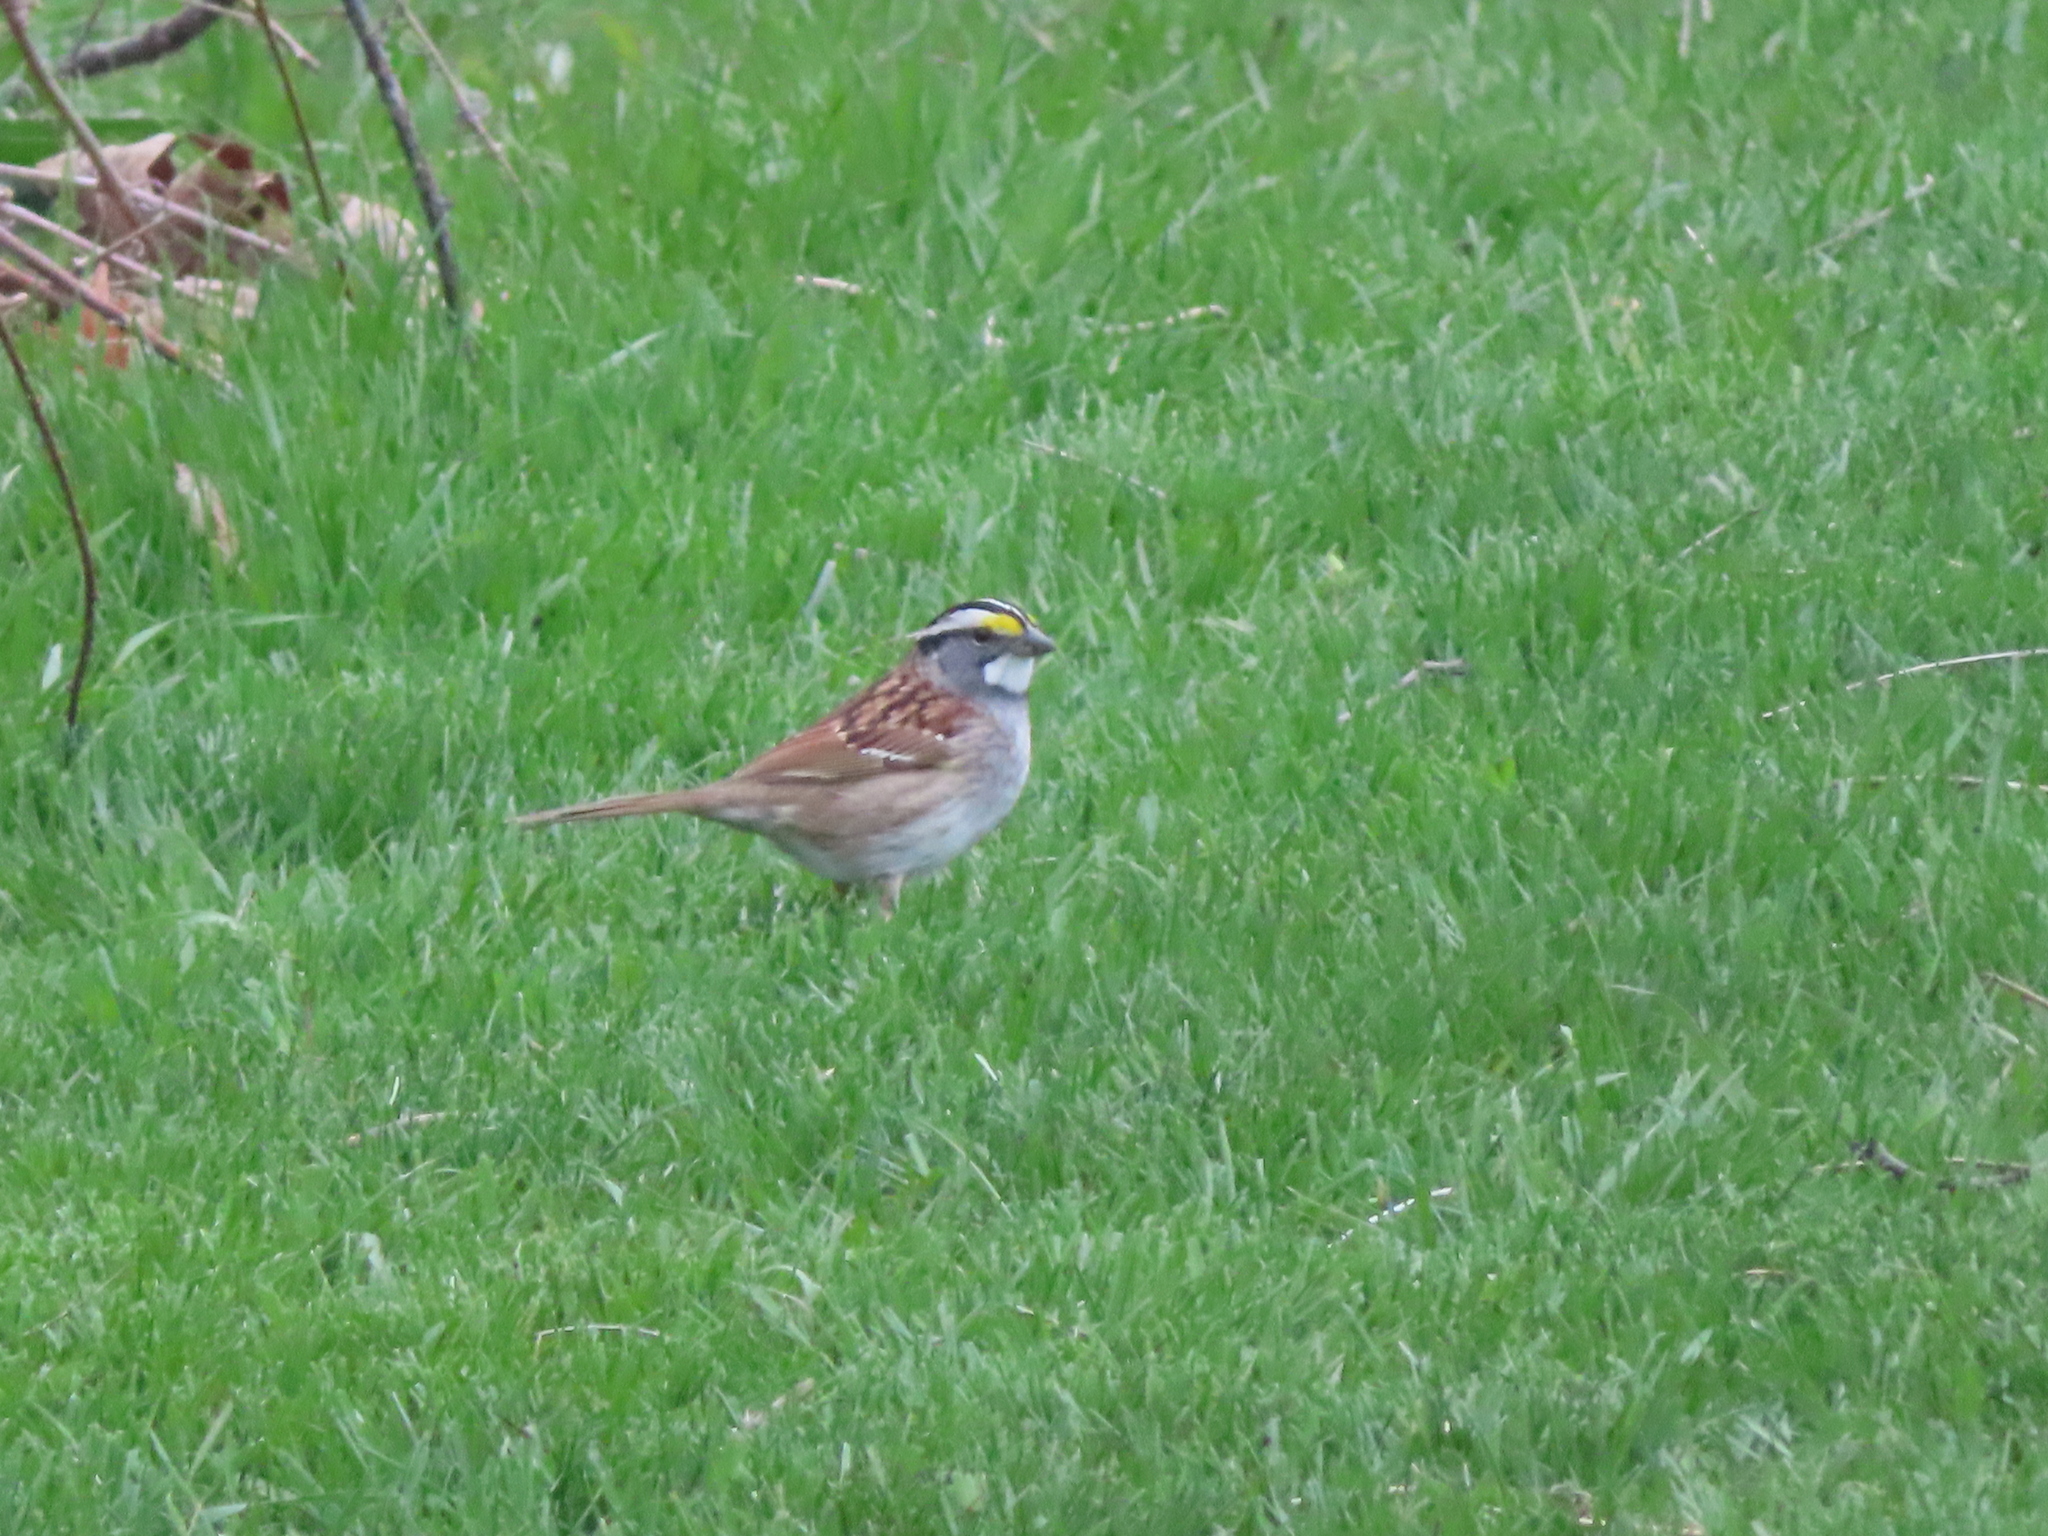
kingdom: Animalia
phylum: Chordata
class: Aves
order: Passeriformes
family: Passerellidae
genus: Zonotrichia
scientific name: Zonotrichia albicollis
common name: White-throated sparrow
